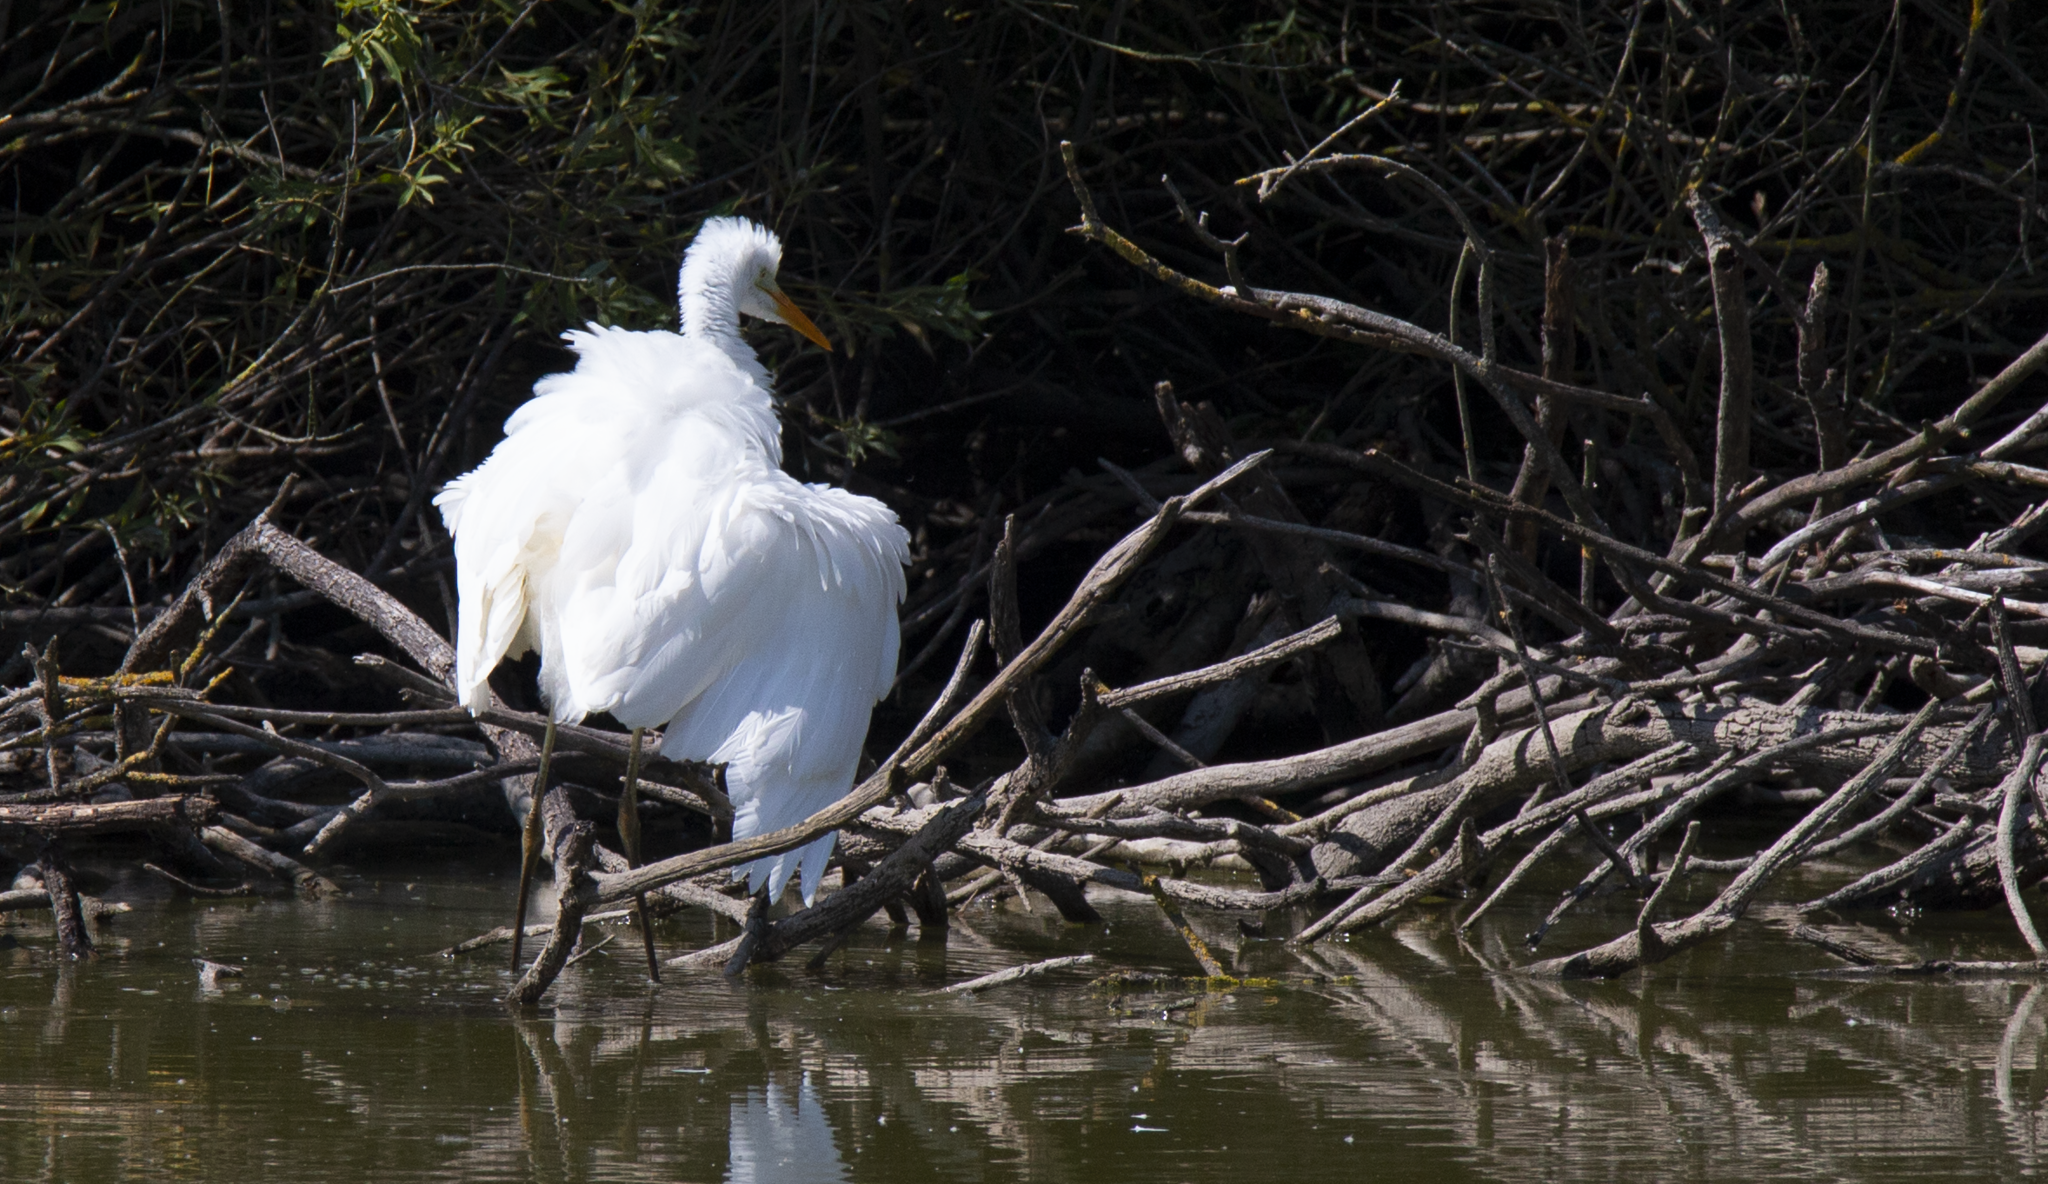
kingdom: Animalia
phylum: Chordata
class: Aves
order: Pelecaniformes
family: Ardeidae
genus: Ardea
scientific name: Ardea alba
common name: Great egret
